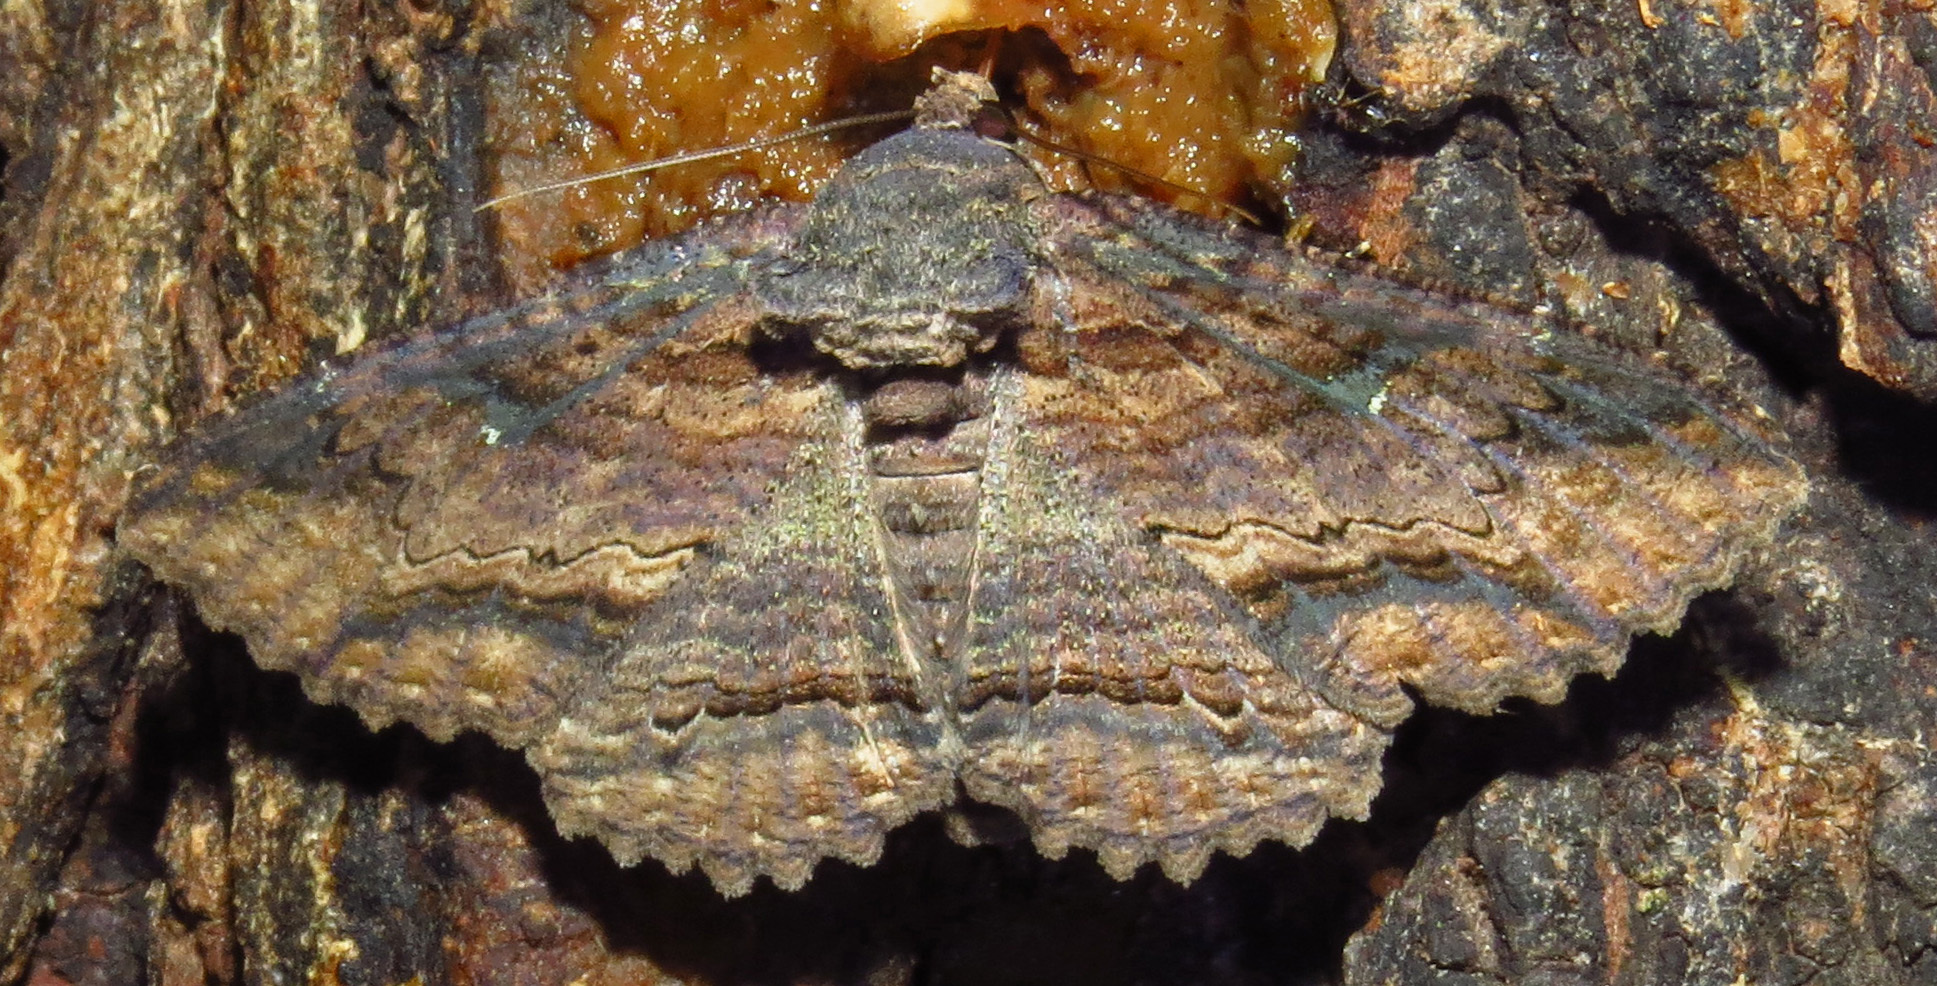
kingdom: Animalia
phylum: Arthropoda
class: Insecta
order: Lepidoptera
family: Erebidae
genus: Zale
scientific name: Zale lunata
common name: Lunate zale moth
